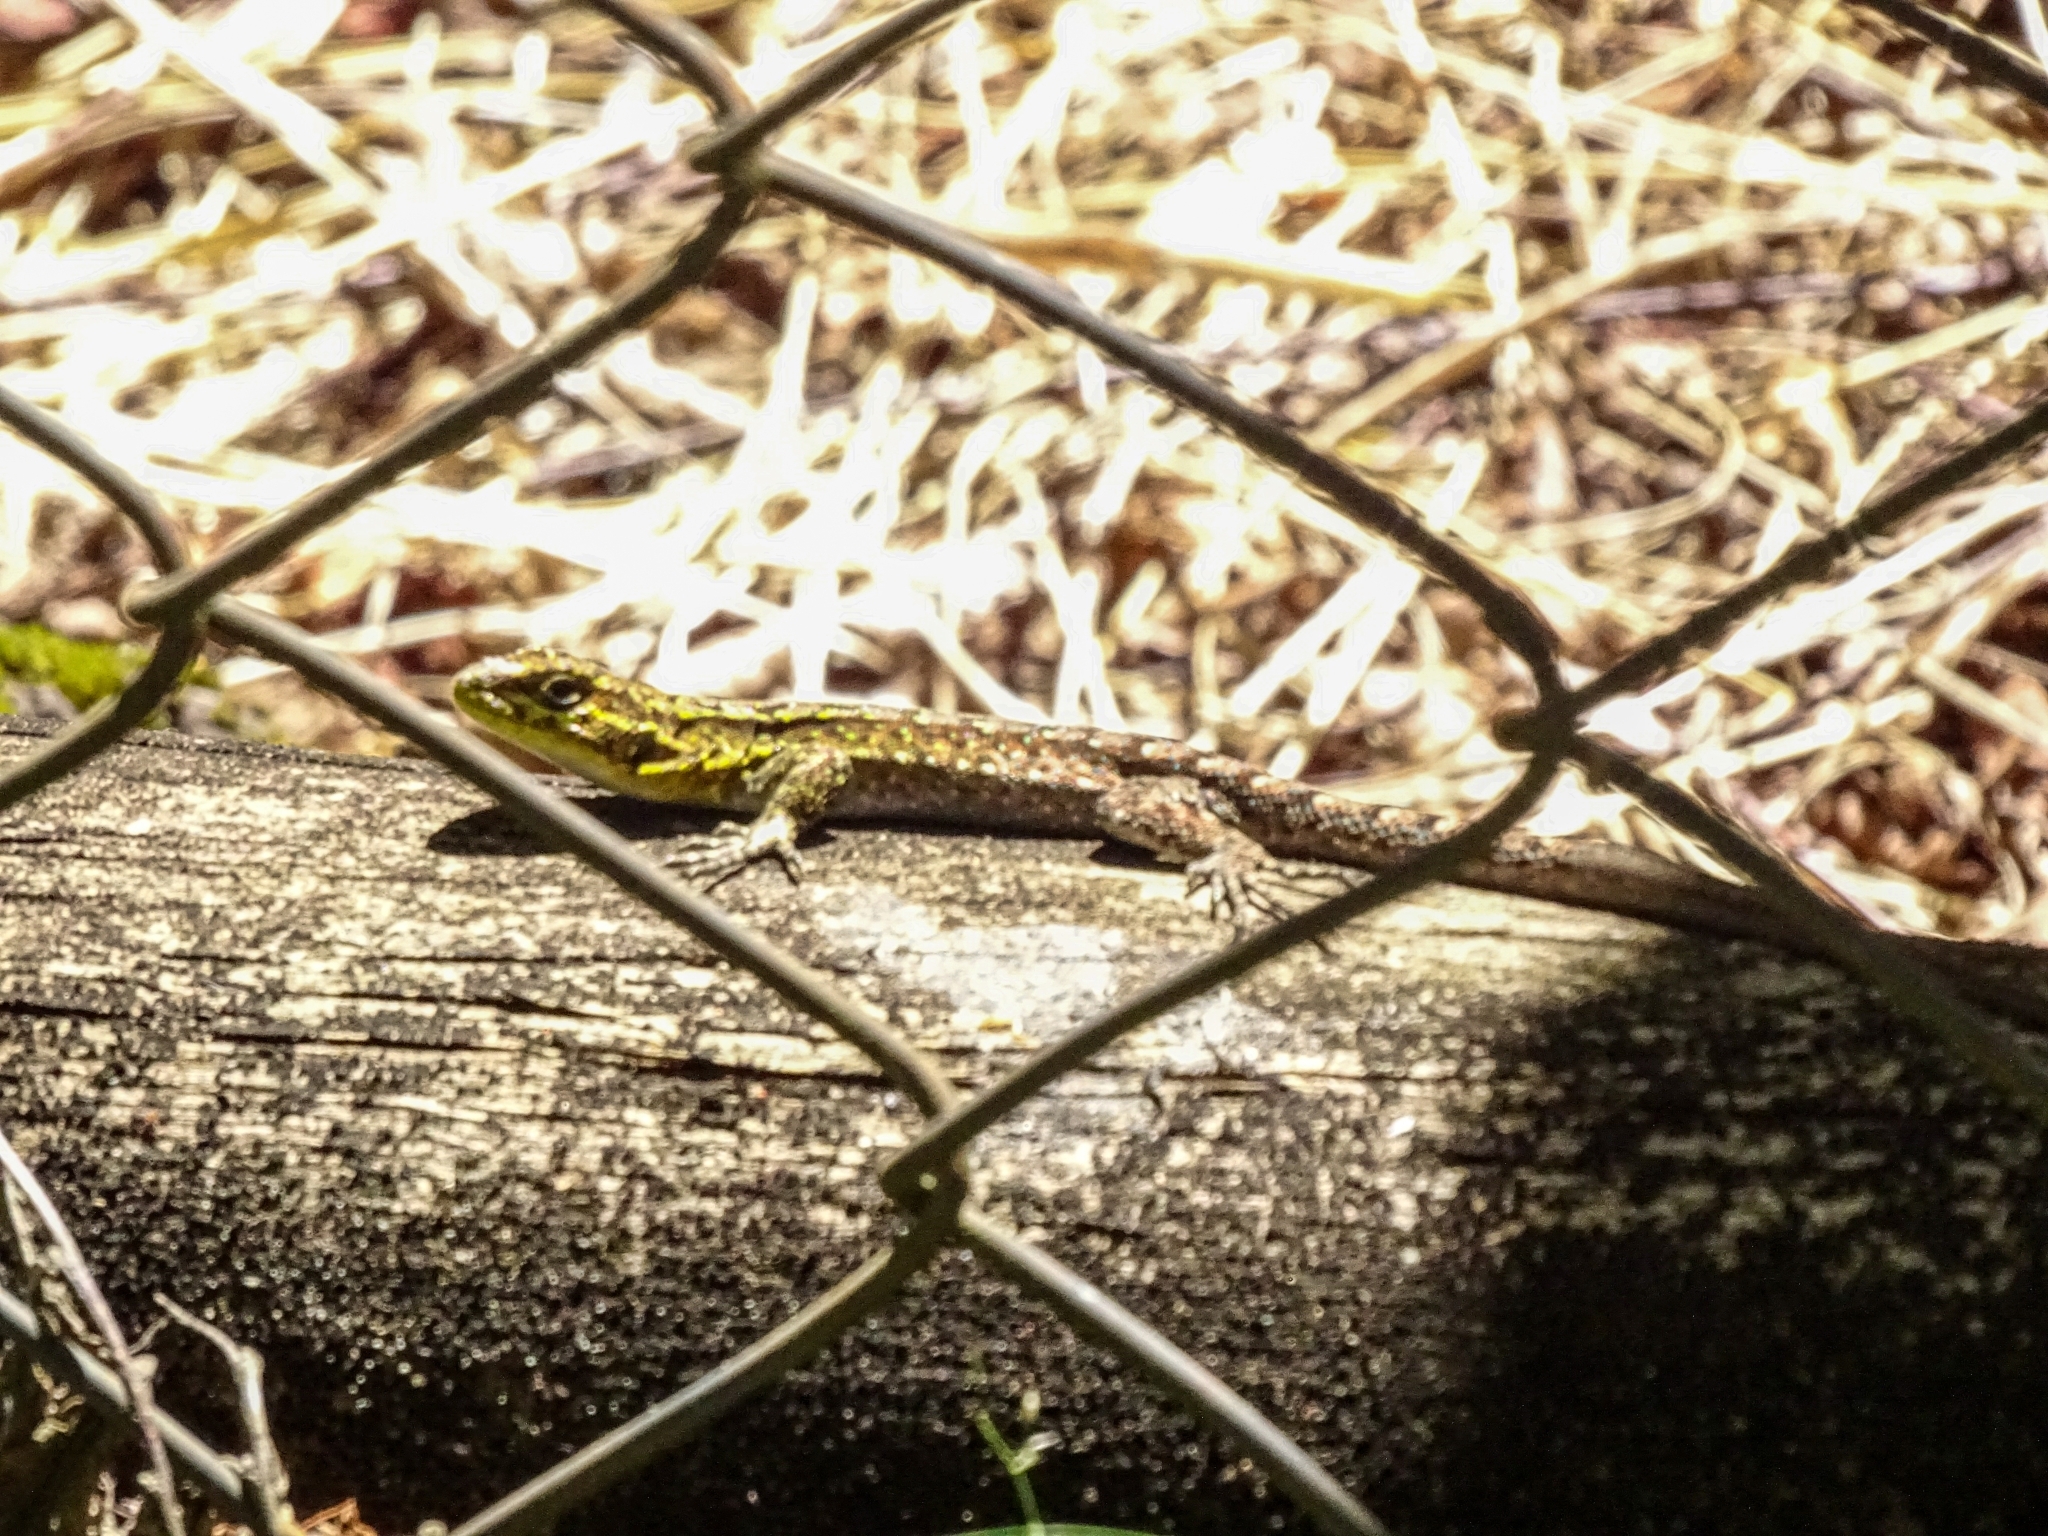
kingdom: Animalia
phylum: Chordata
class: Squamata
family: Liolaemidae
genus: Liolaemus
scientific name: Liolaemus tenuis
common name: Thin tree iguana
